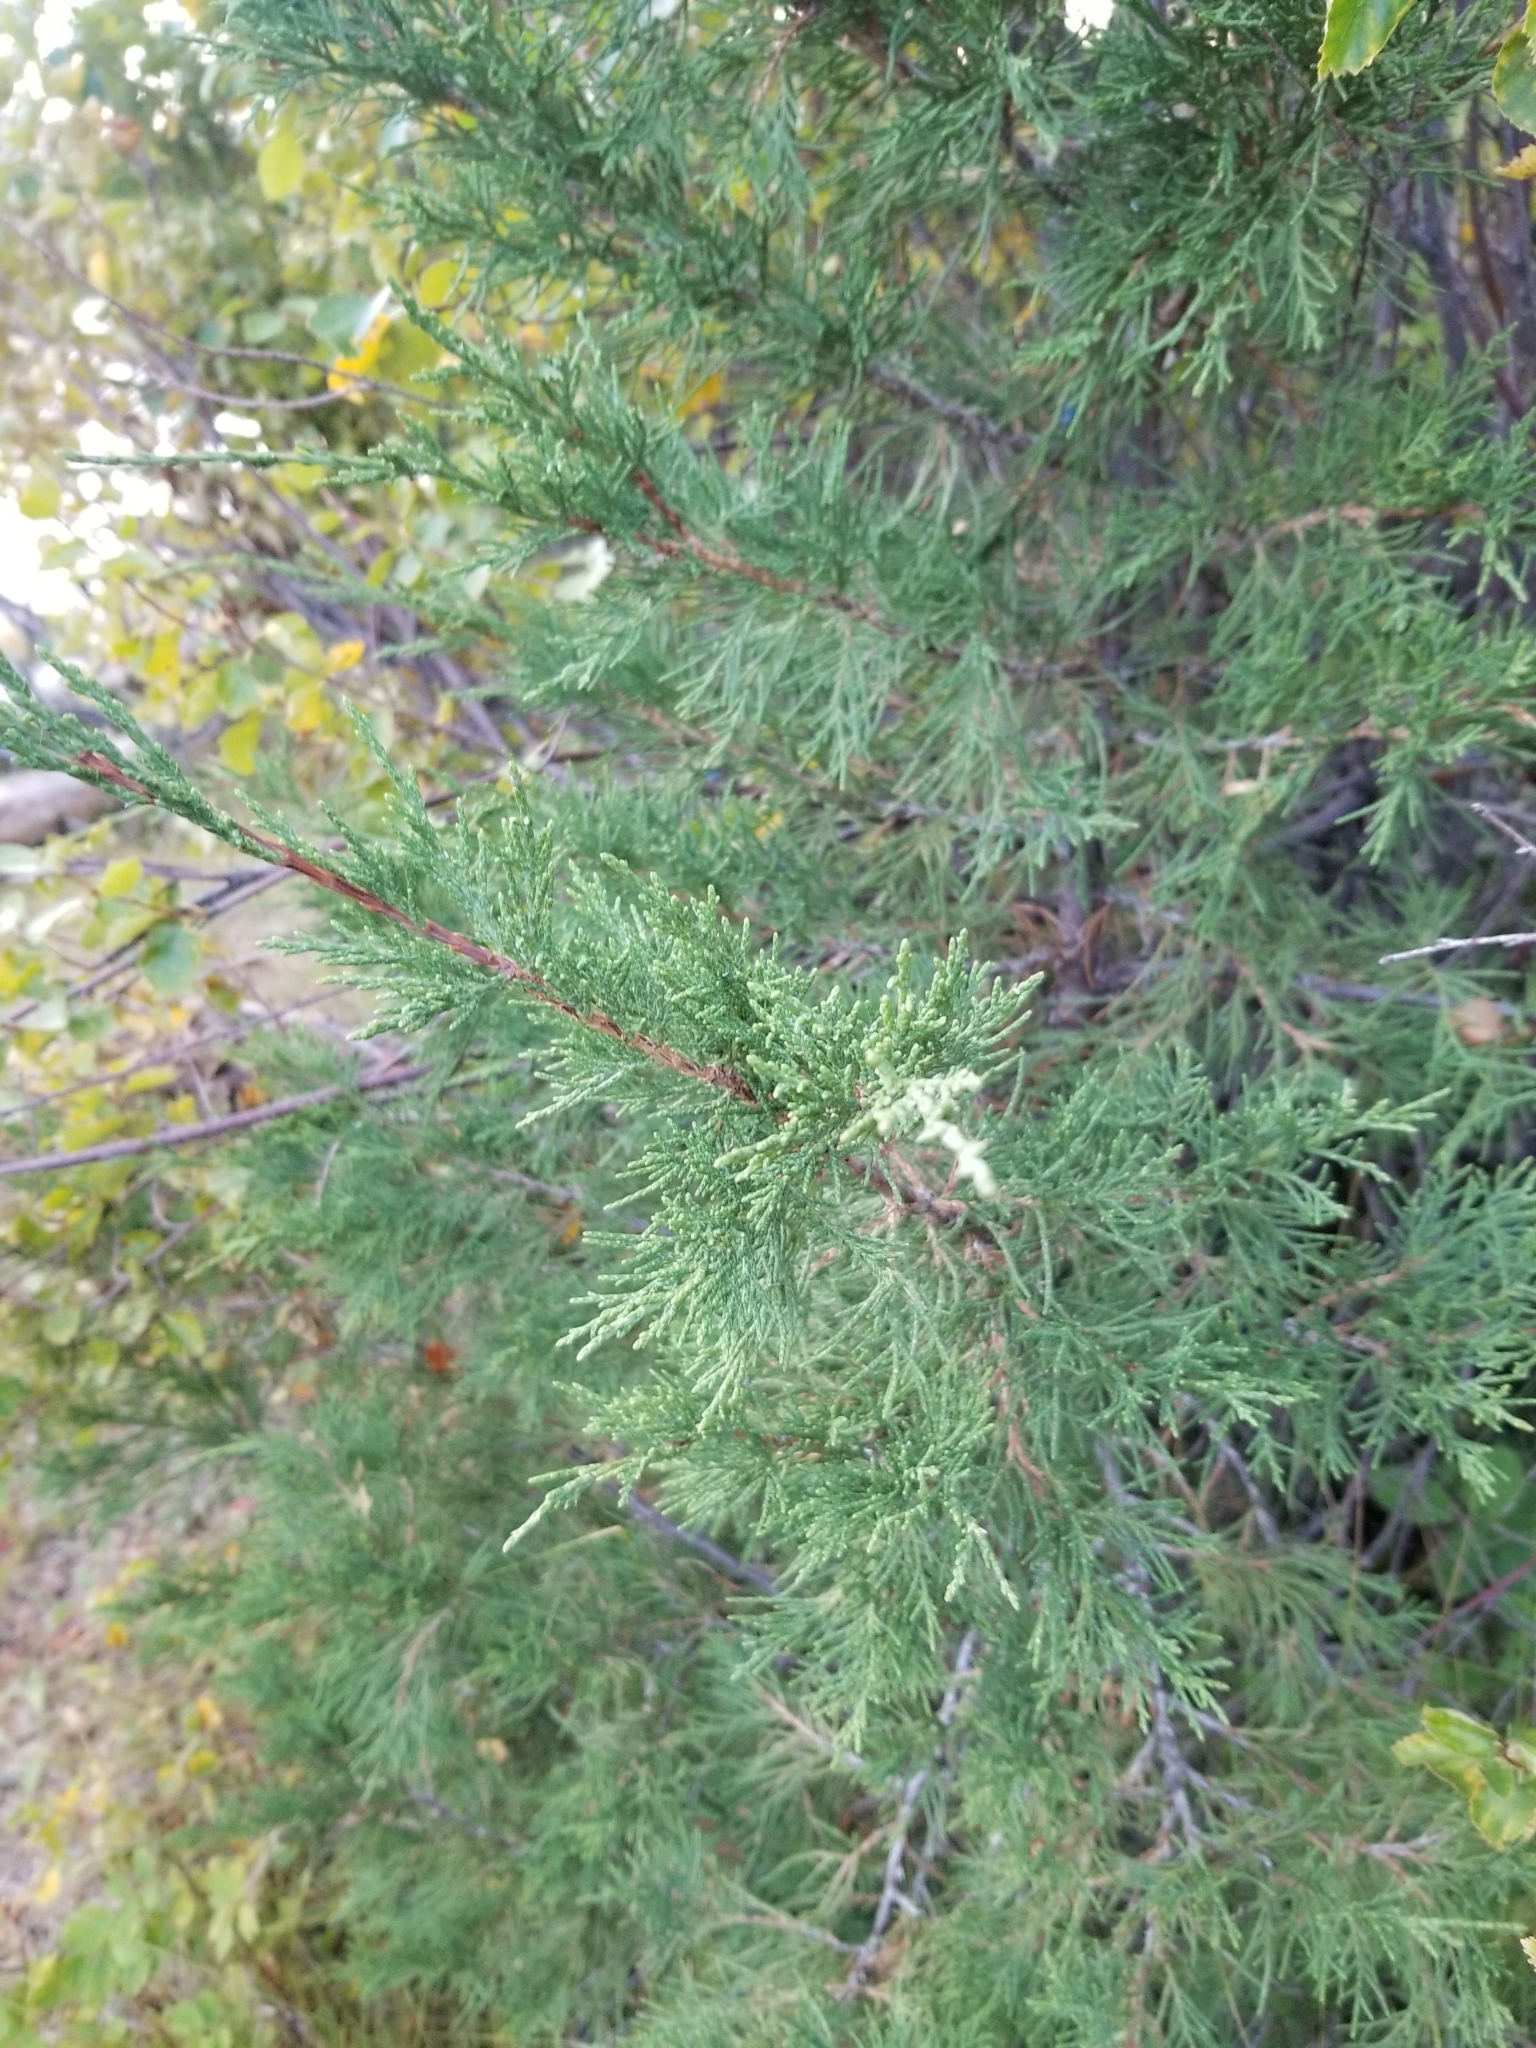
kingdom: Plantae
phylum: Tracheophyta
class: Pinopsida
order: Pinales
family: Cupressaceae
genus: Juniperus
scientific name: Juniperus scopulorum
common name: Rocky mountain juniper
